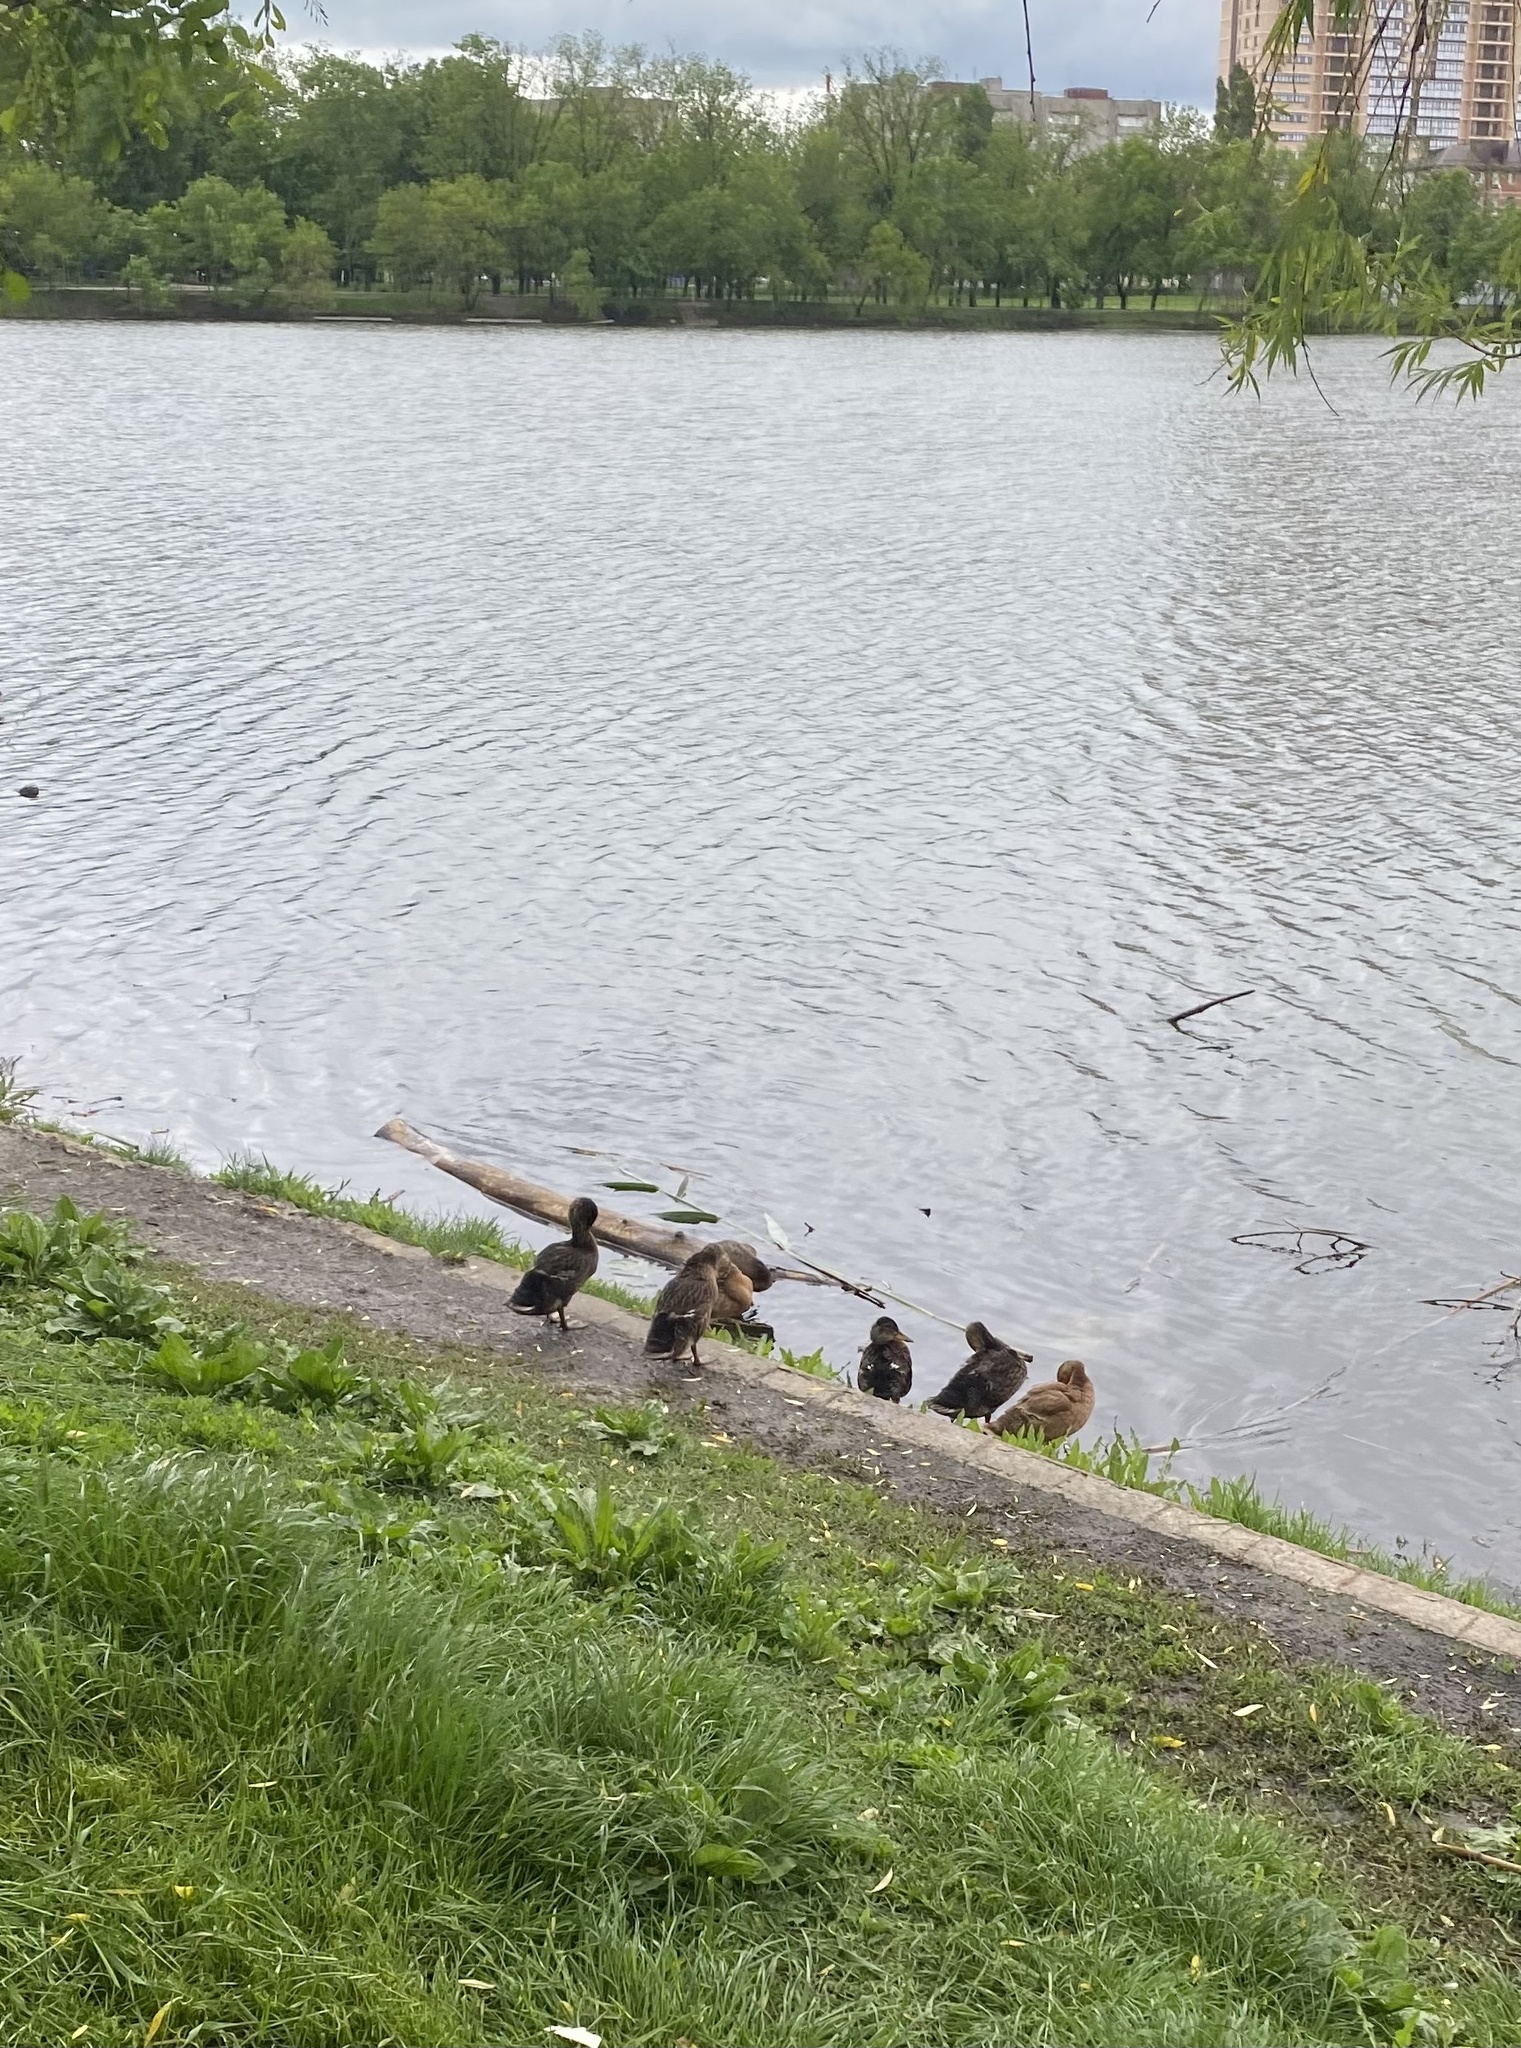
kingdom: Animalia
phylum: Chordata
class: Aves
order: Anseriformes
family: Anatidae
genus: Anas
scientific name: Anas platyrhynchos
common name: Mallard
